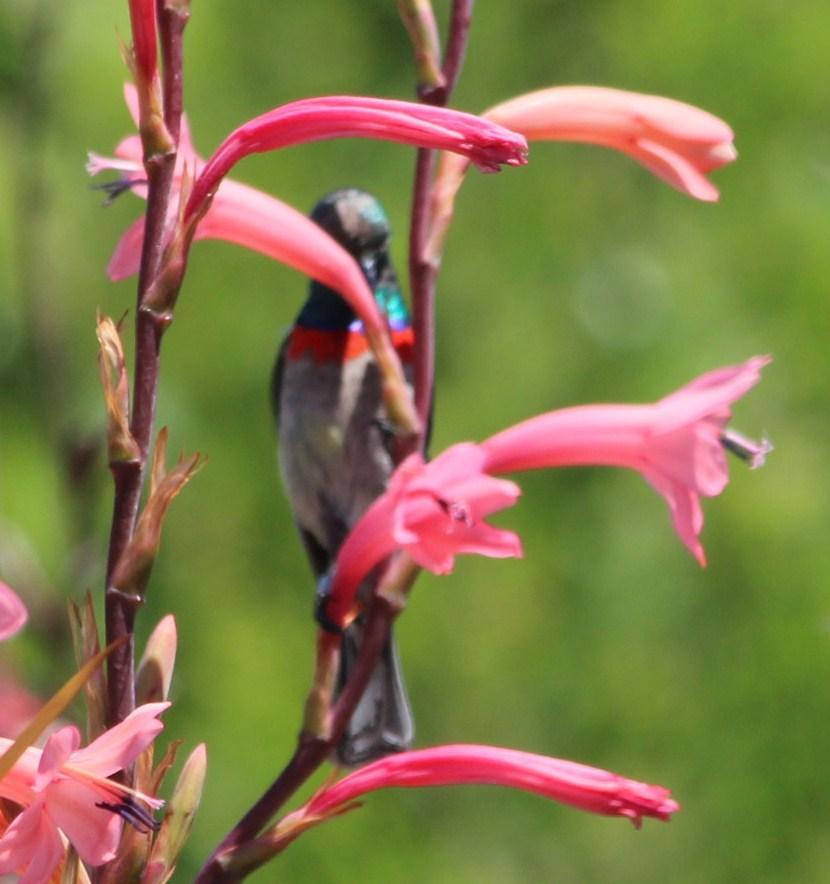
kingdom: Animalia
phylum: Chordata
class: Aves
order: Passeriformes
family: Nectariniidae
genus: Cinnyris
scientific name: Cinnyris chalybeus
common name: Southern double-collared sunbird
